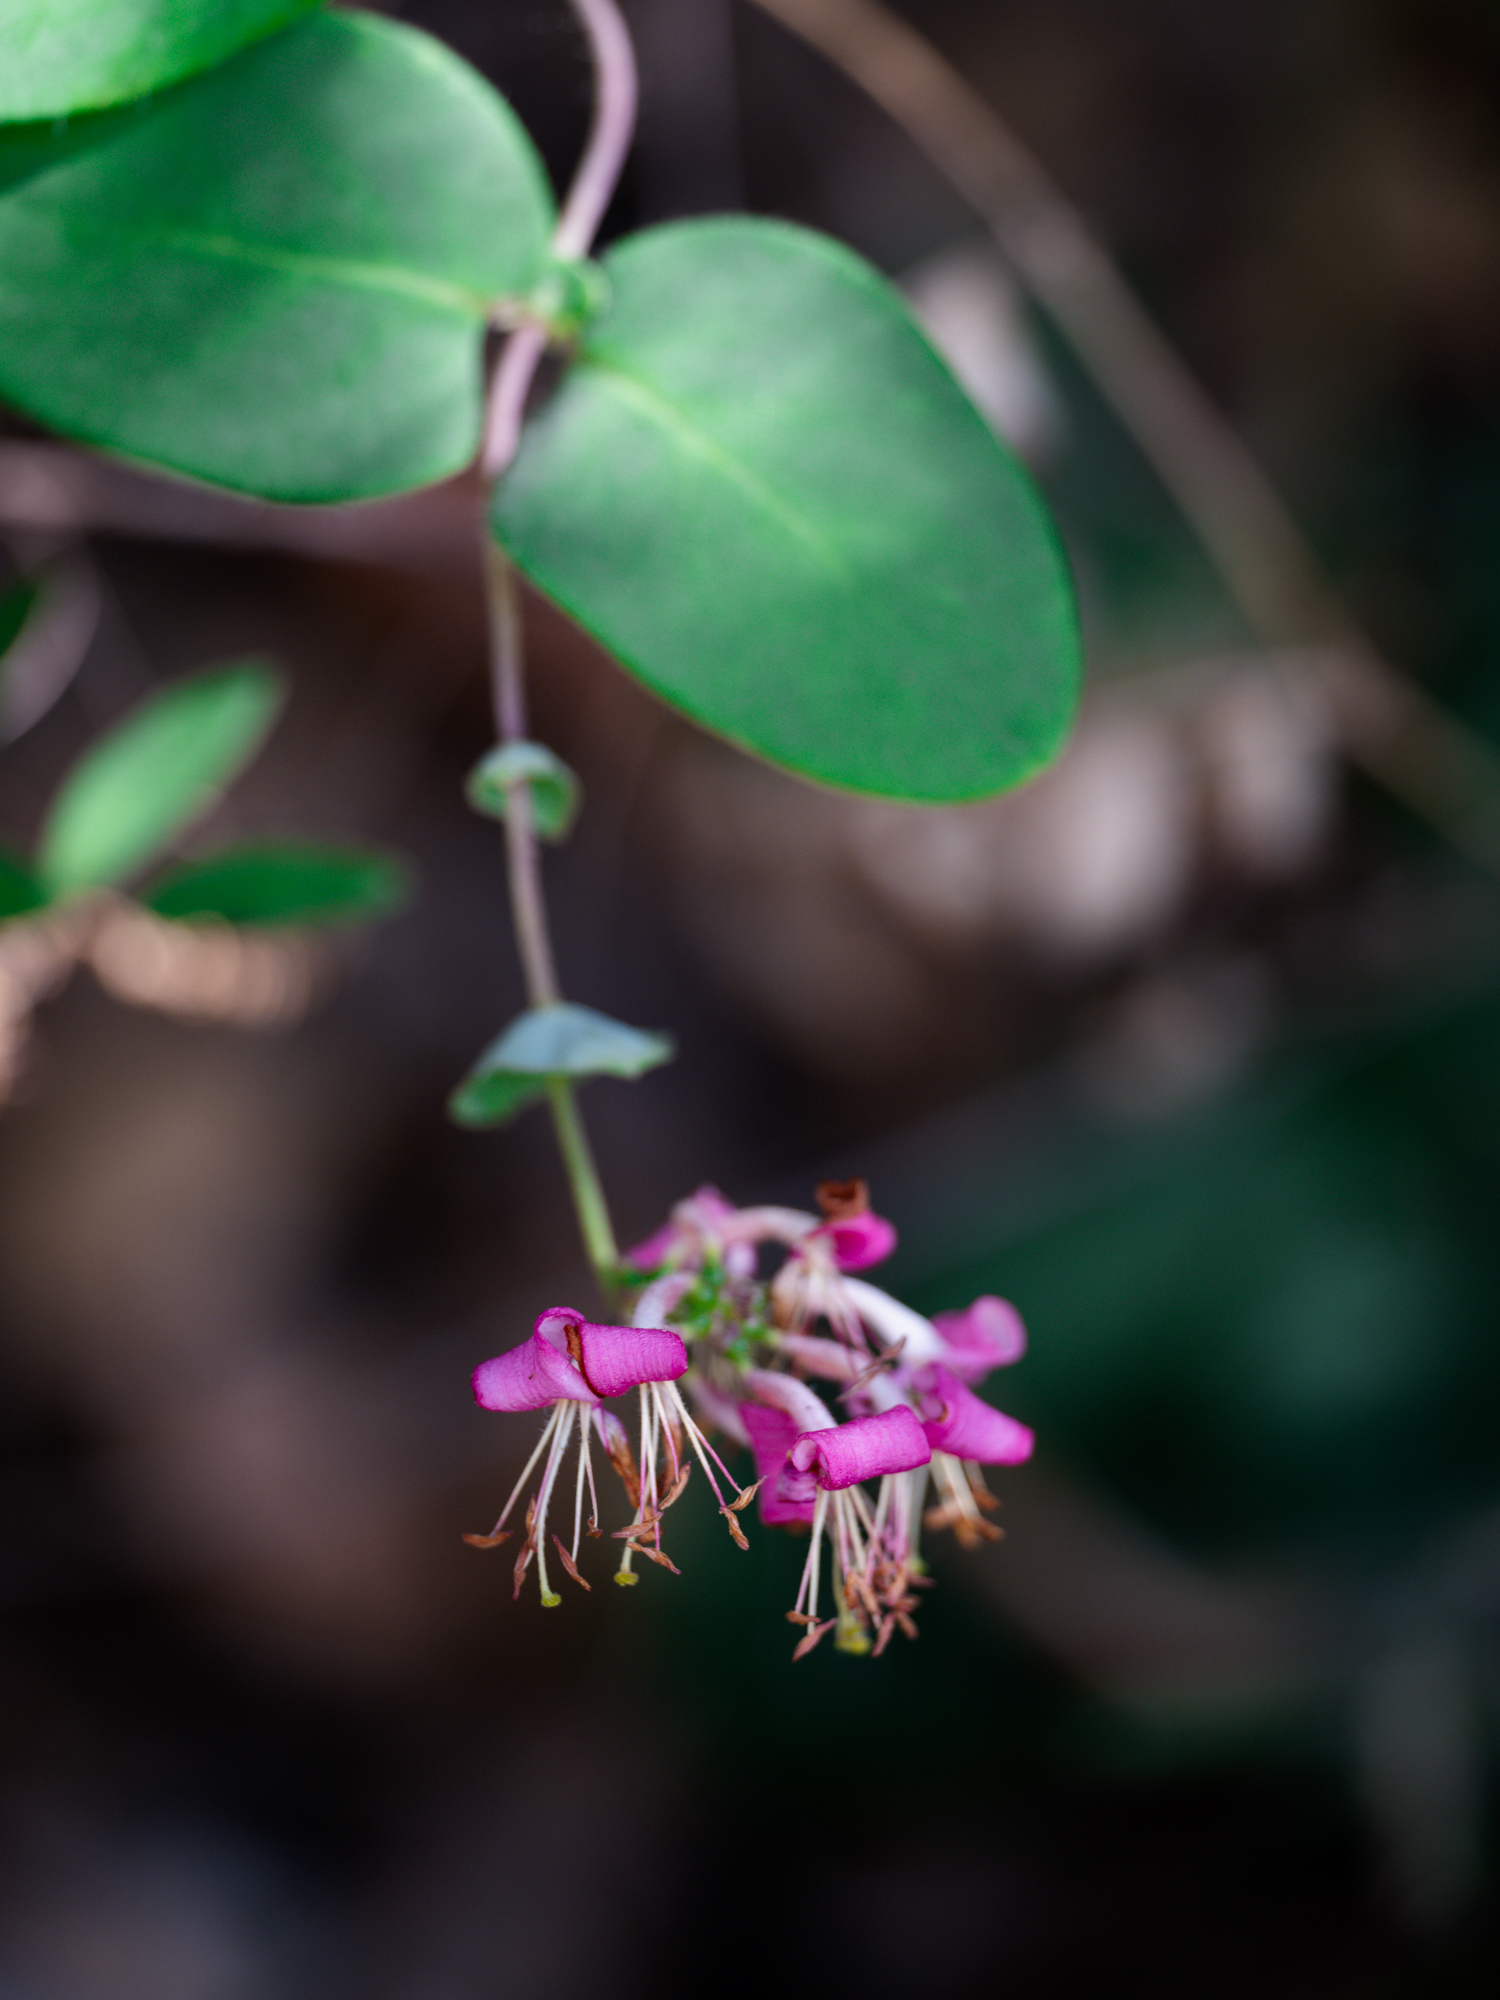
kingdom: Plantae
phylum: Tracheophyta
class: Magnoliopsida
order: Dipsacales
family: Caprifoliaceae
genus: Lonicera
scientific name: Lonicera hispidula
